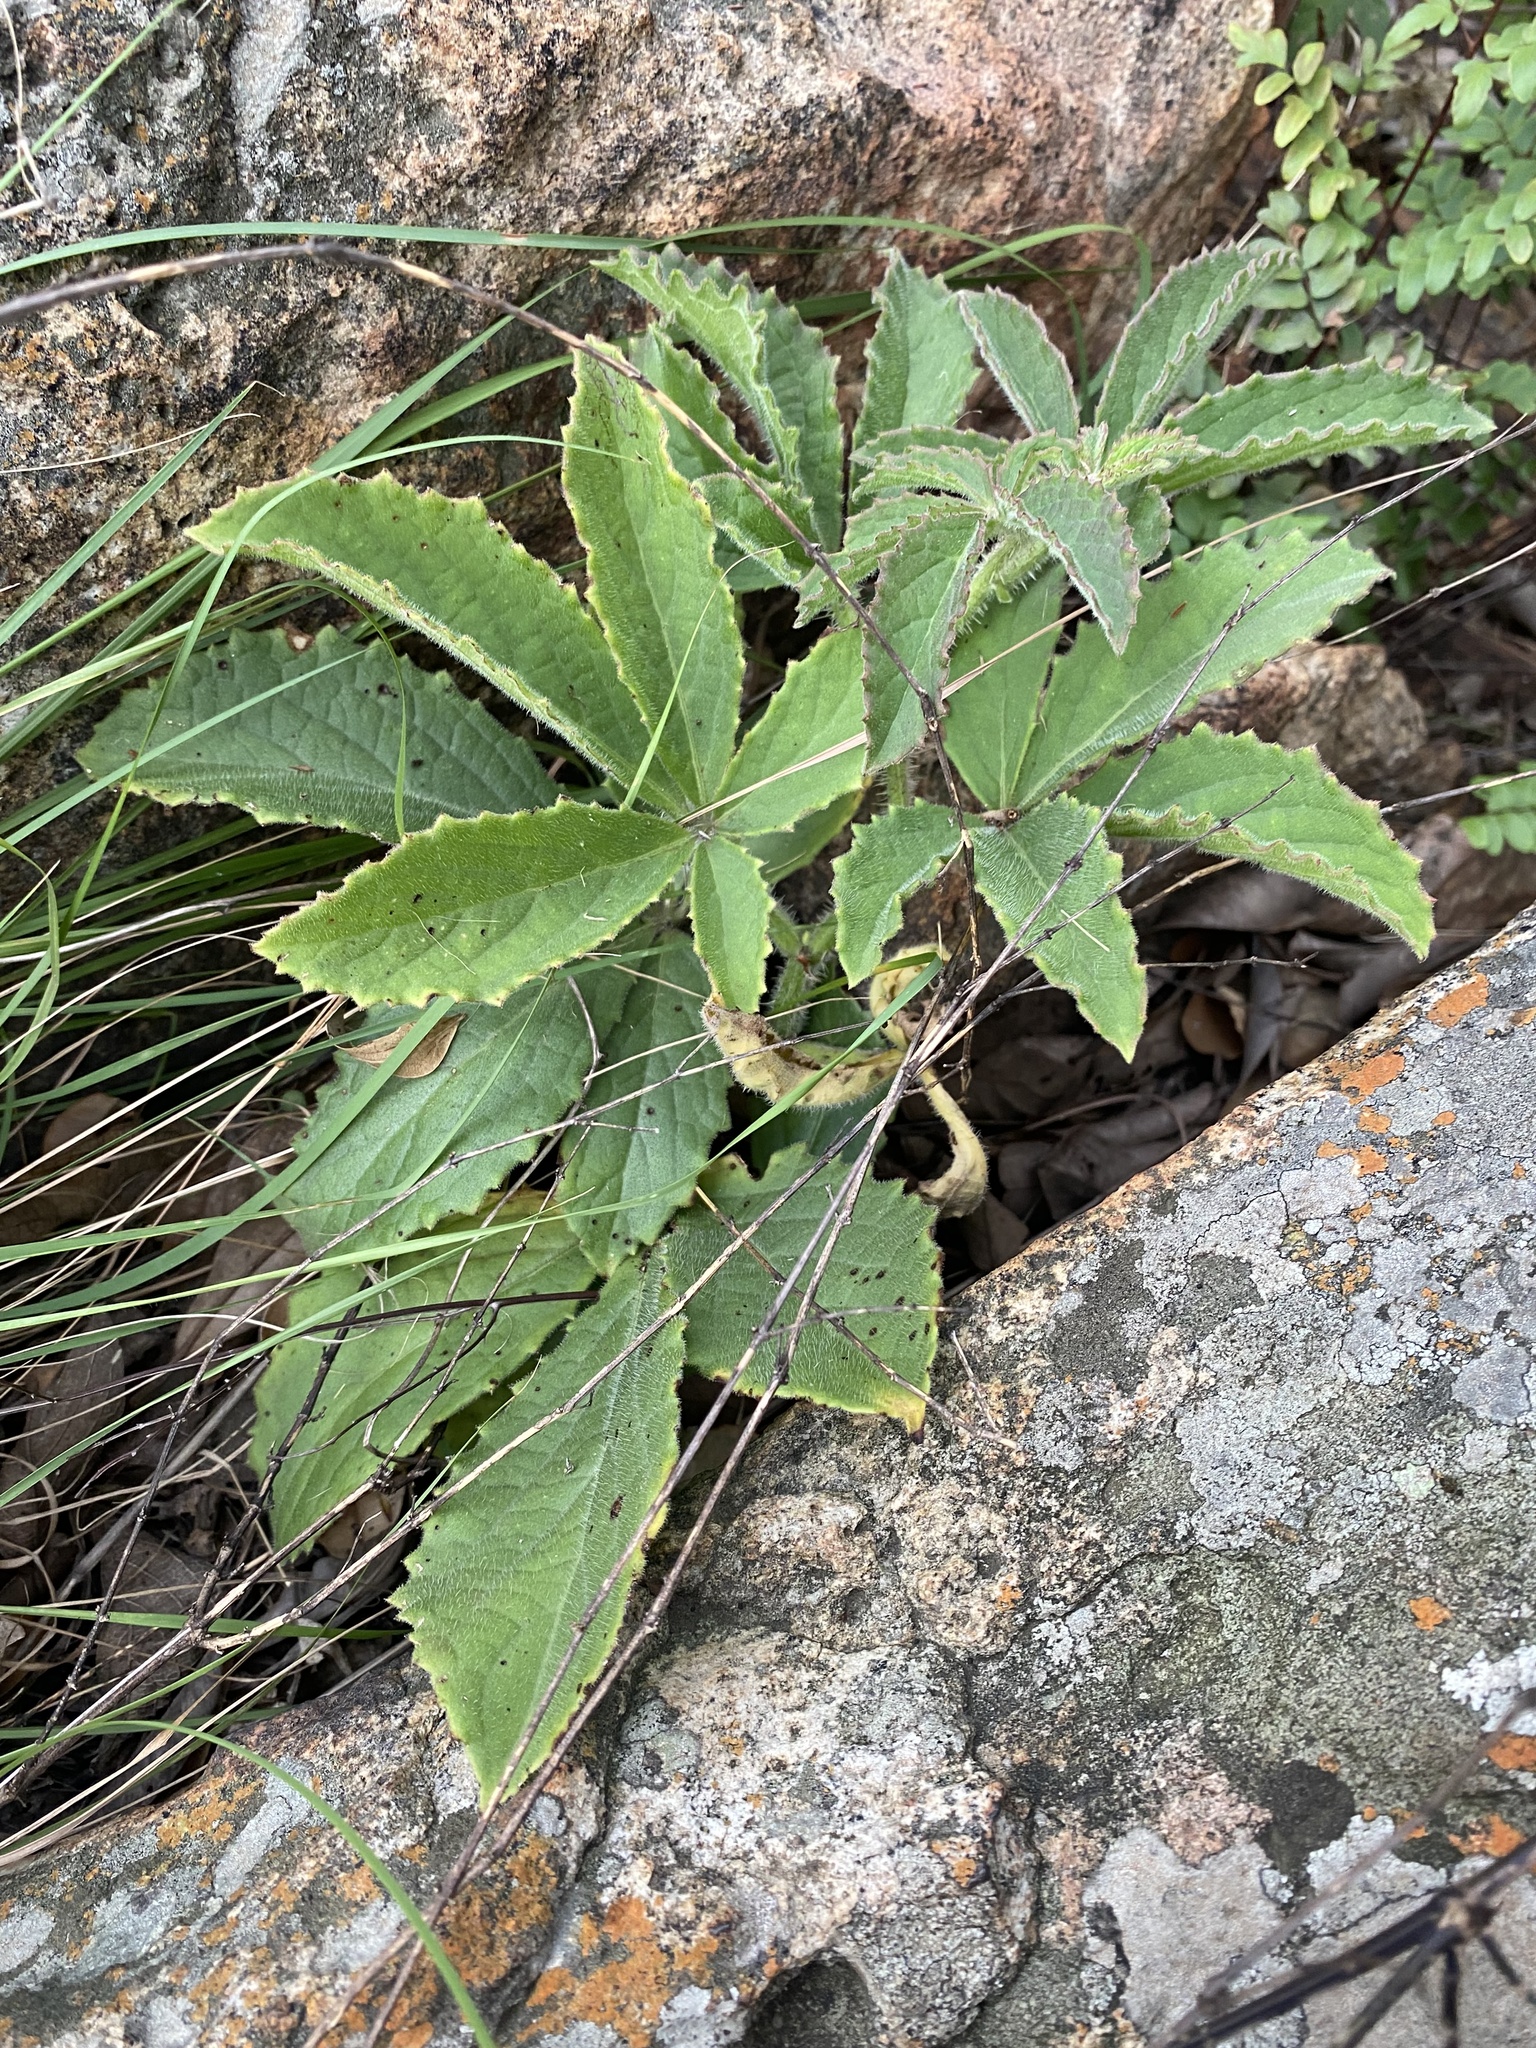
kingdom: Plantae
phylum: Tracheophyta
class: Magnoliopsida
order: Vitales
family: Vitaceae
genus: Cyphostemma
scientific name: Cyphostemma cirrhosum
